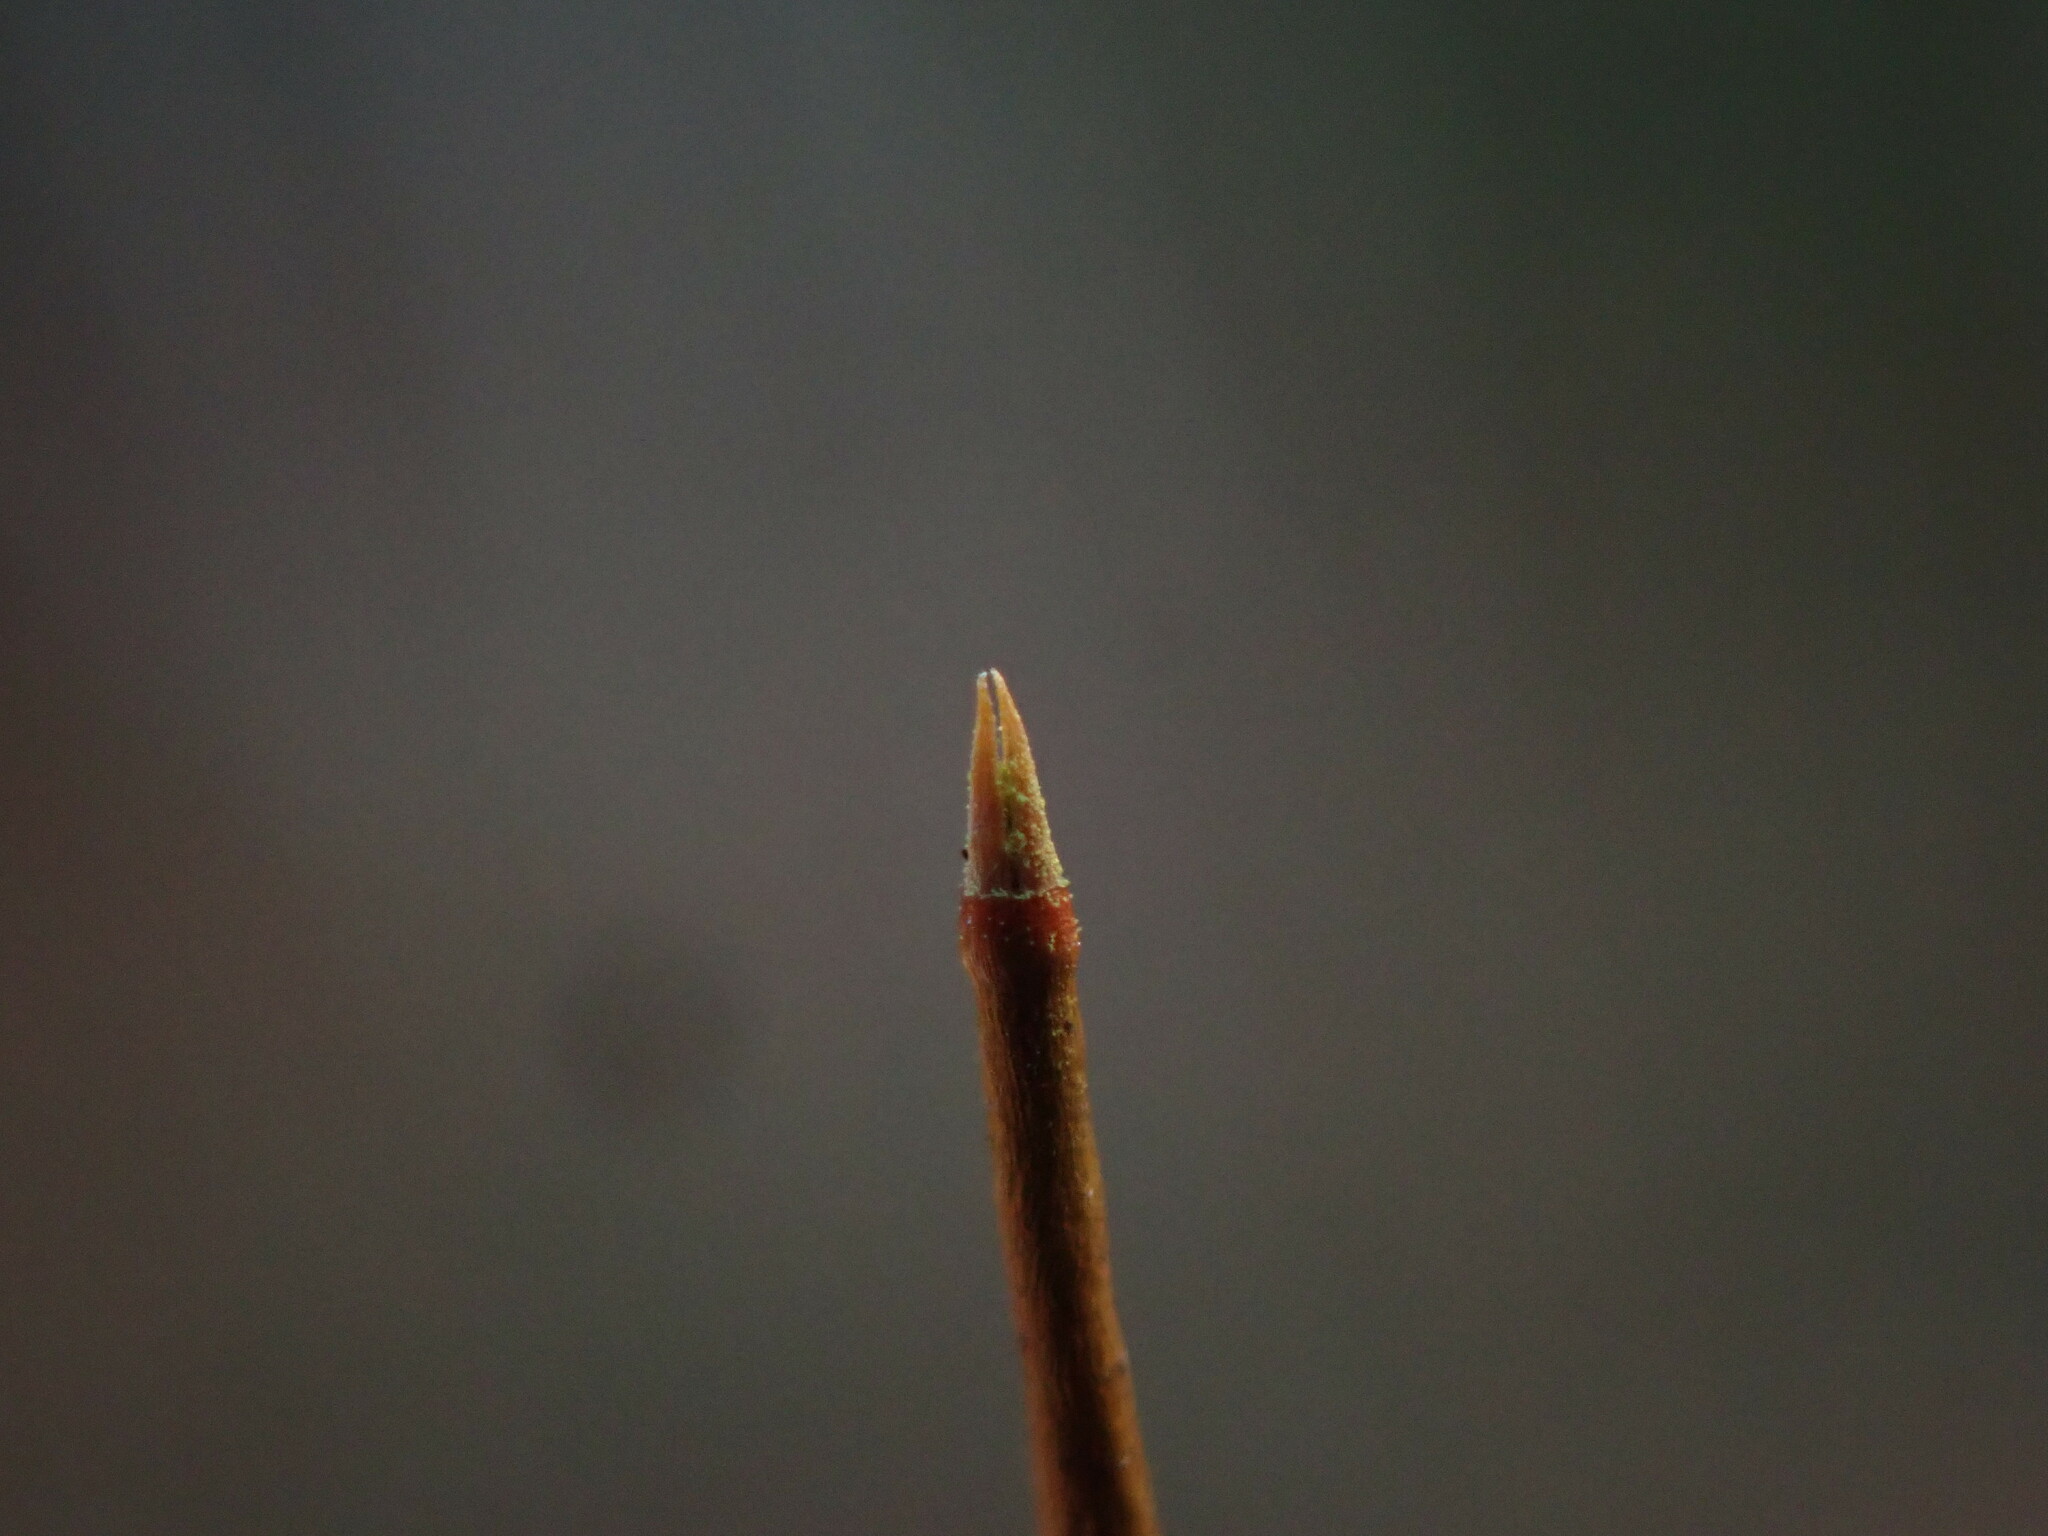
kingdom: Plantae
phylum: Bryophyta
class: Polytrichopsida
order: Tetraphidales
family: Tetraphidaceae
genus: Tetraphis
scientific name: Tetraphis pellucida
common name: Common four-toothed moss
